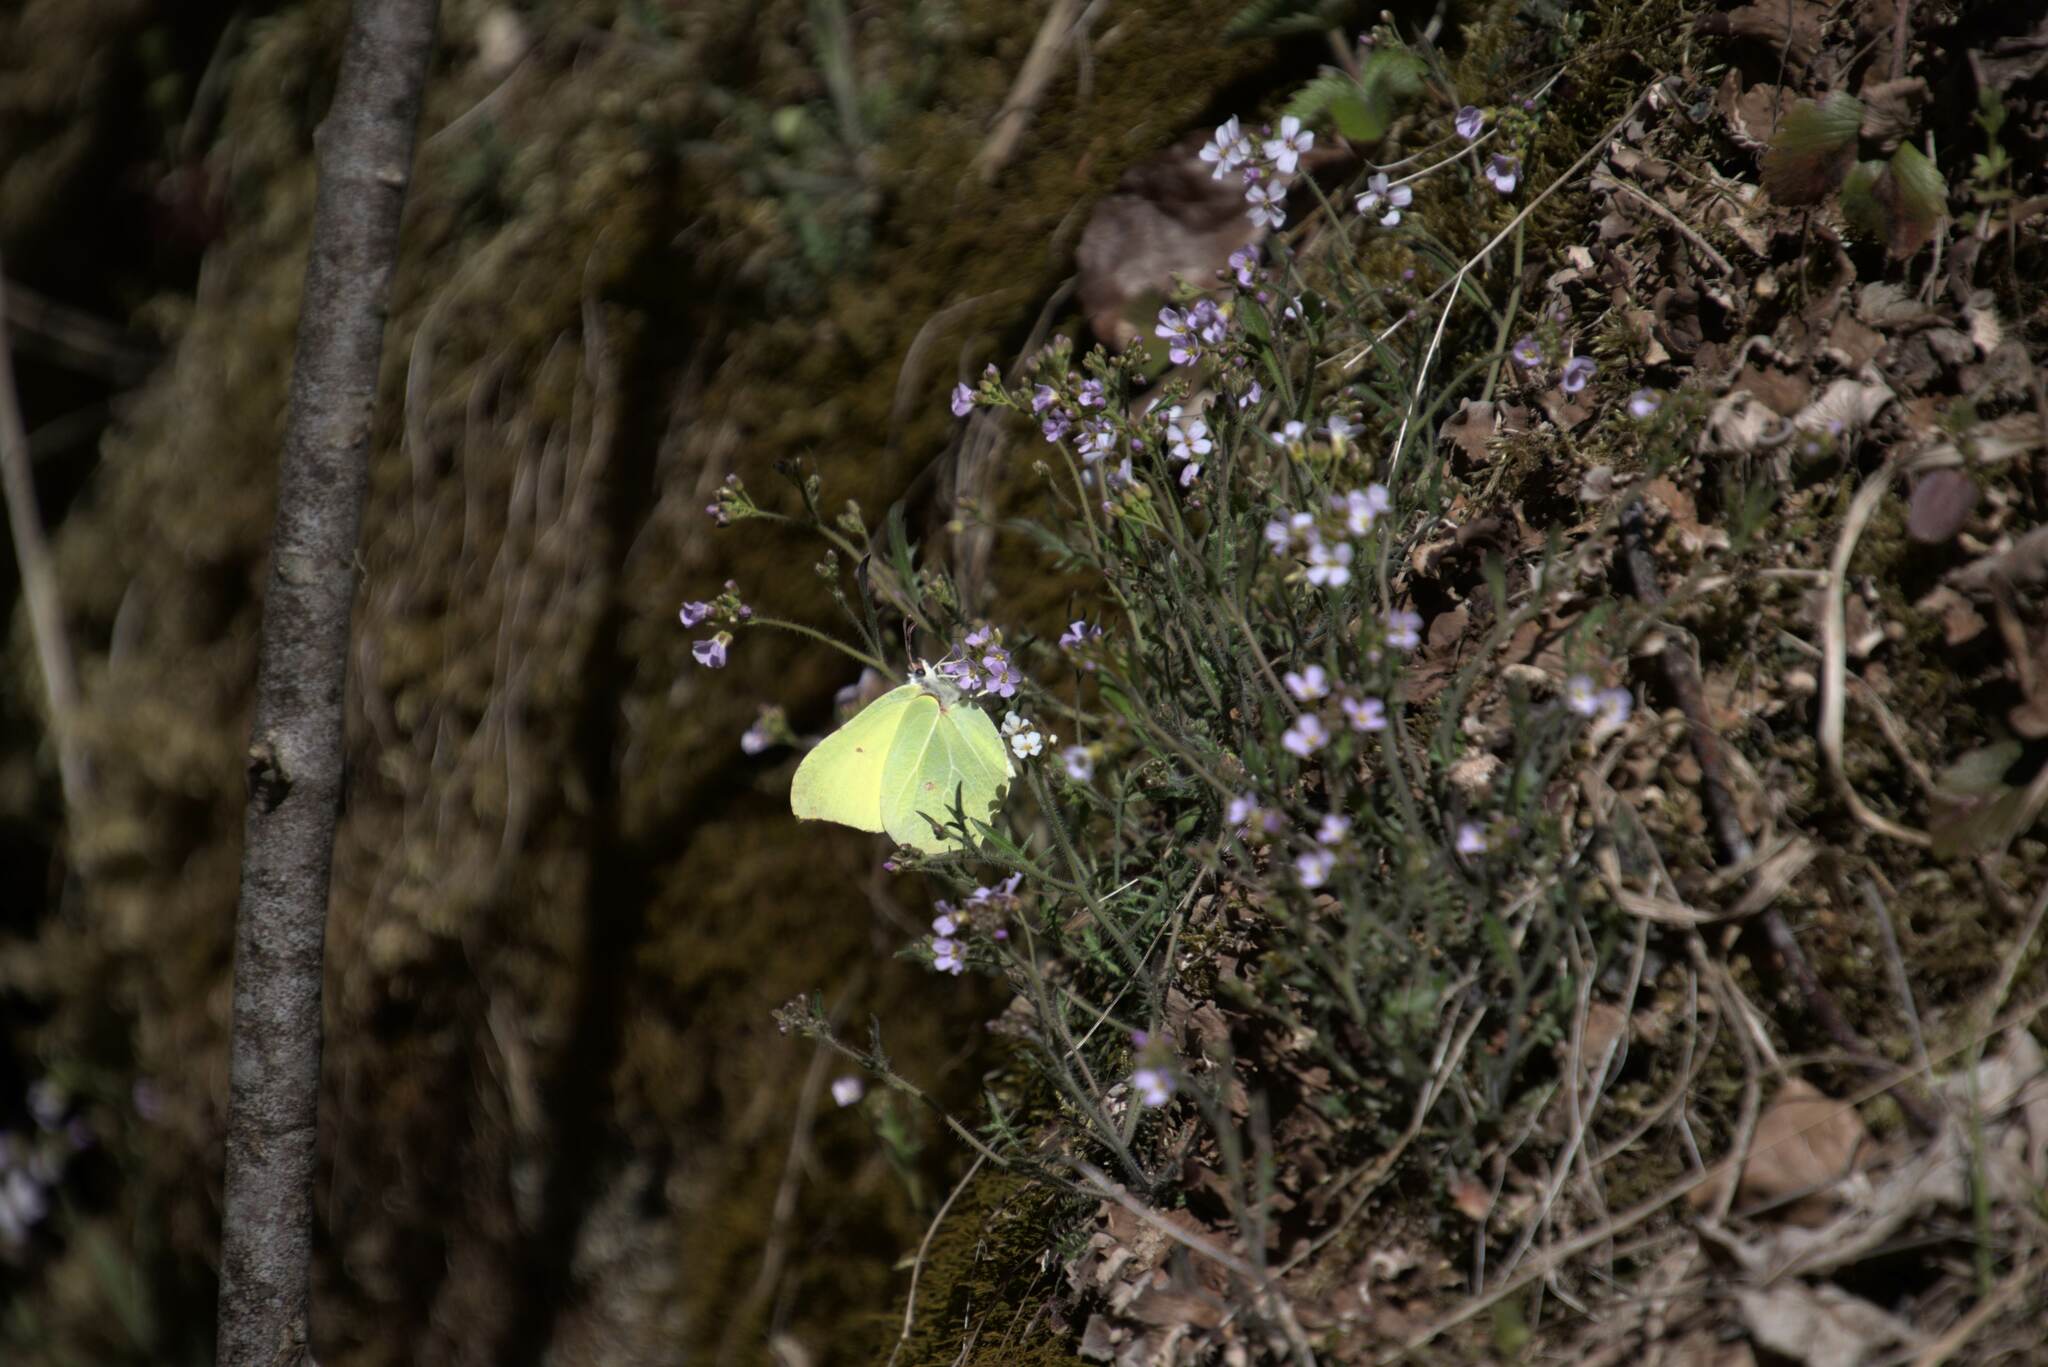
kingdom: Animalia
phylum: Arthropoda
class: Insecta
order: Lepidoptera
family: Pieridae
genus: Gonepteryx
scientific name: Gonepteryx rhamni
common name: Brimstone
